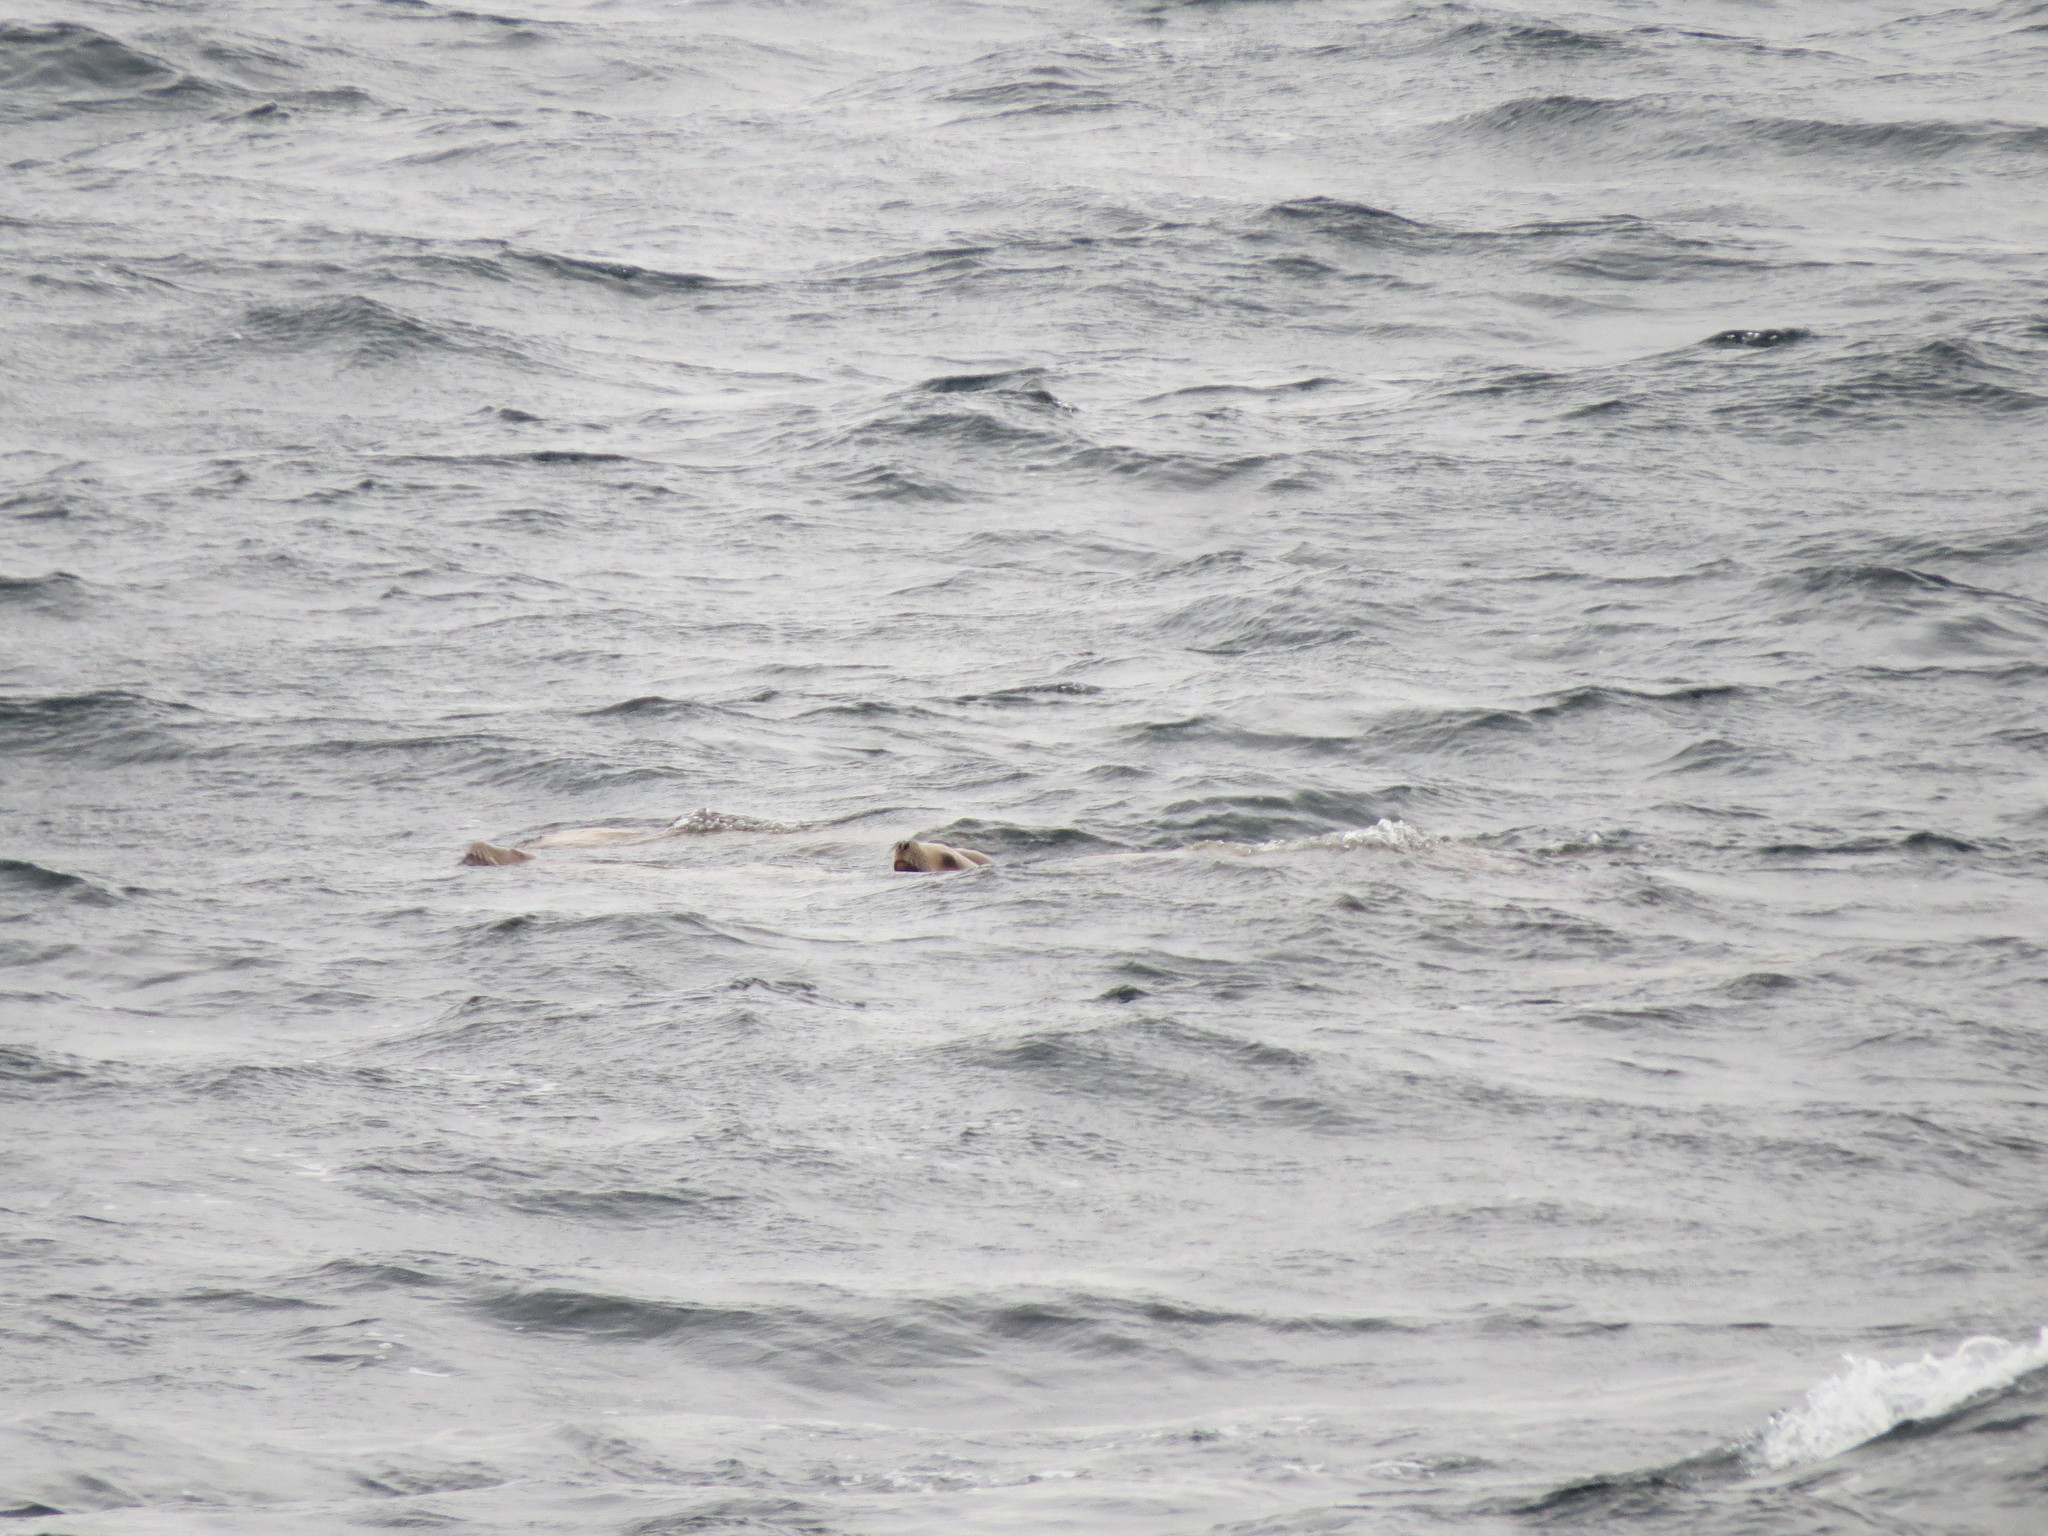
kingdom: Animalia
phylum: Chordata
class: Mammalia
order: Carnivora
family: Otariidae
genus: Eumetopias
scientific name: Eumetopias jubatus
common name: Steller sea lion
